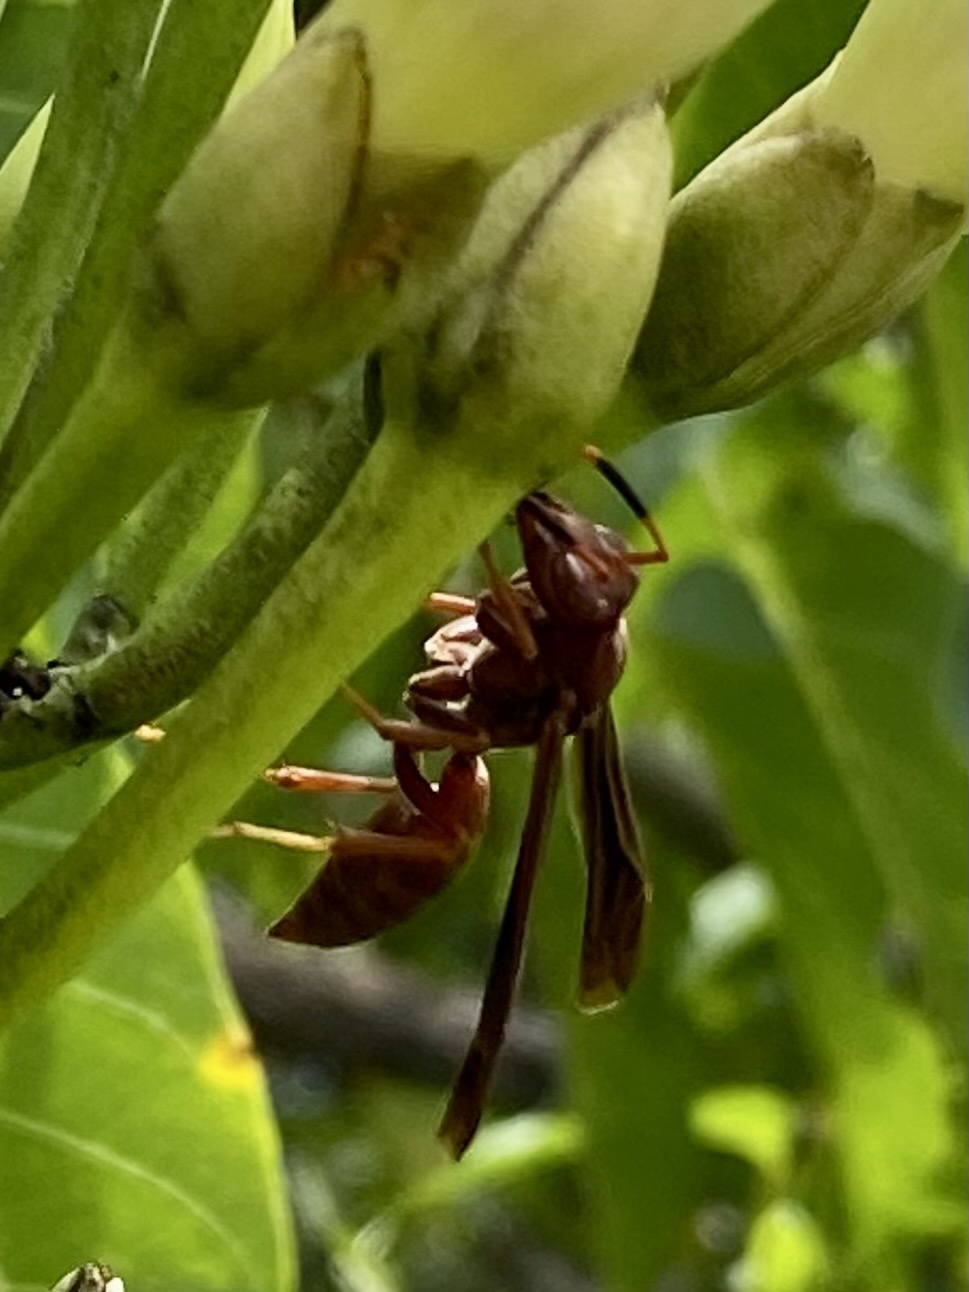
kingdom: Animalia
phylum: Arthropoda
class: Insecta
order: Hymenoptera
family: Eumenidae
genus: Polistes
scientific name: Polistes canadensis
